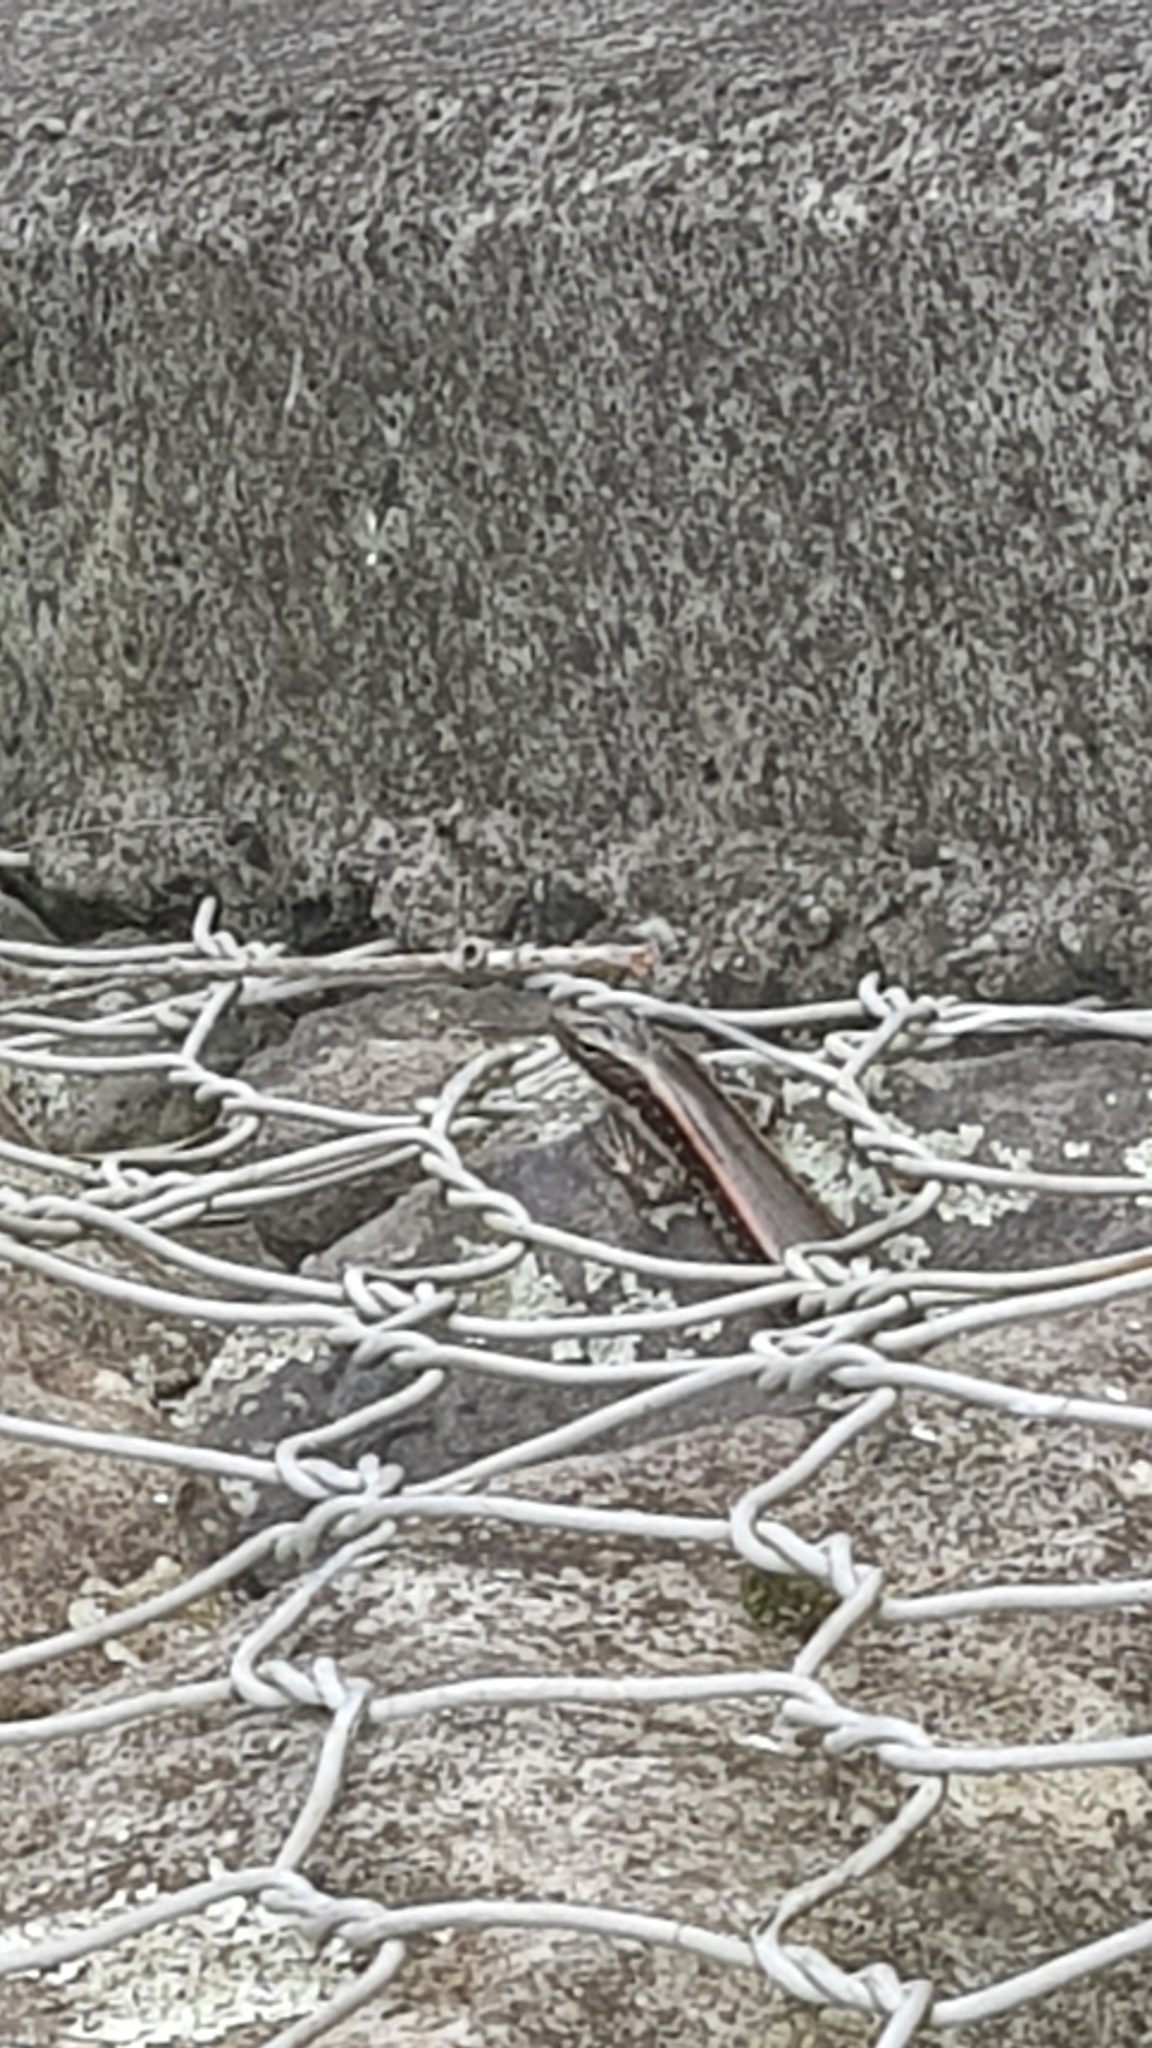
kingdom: Animalia
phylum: Chordata
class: Squamata
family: Scincidae
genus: Eulamprus
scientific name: Eulamprus quoyii
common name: Eastern water skink
